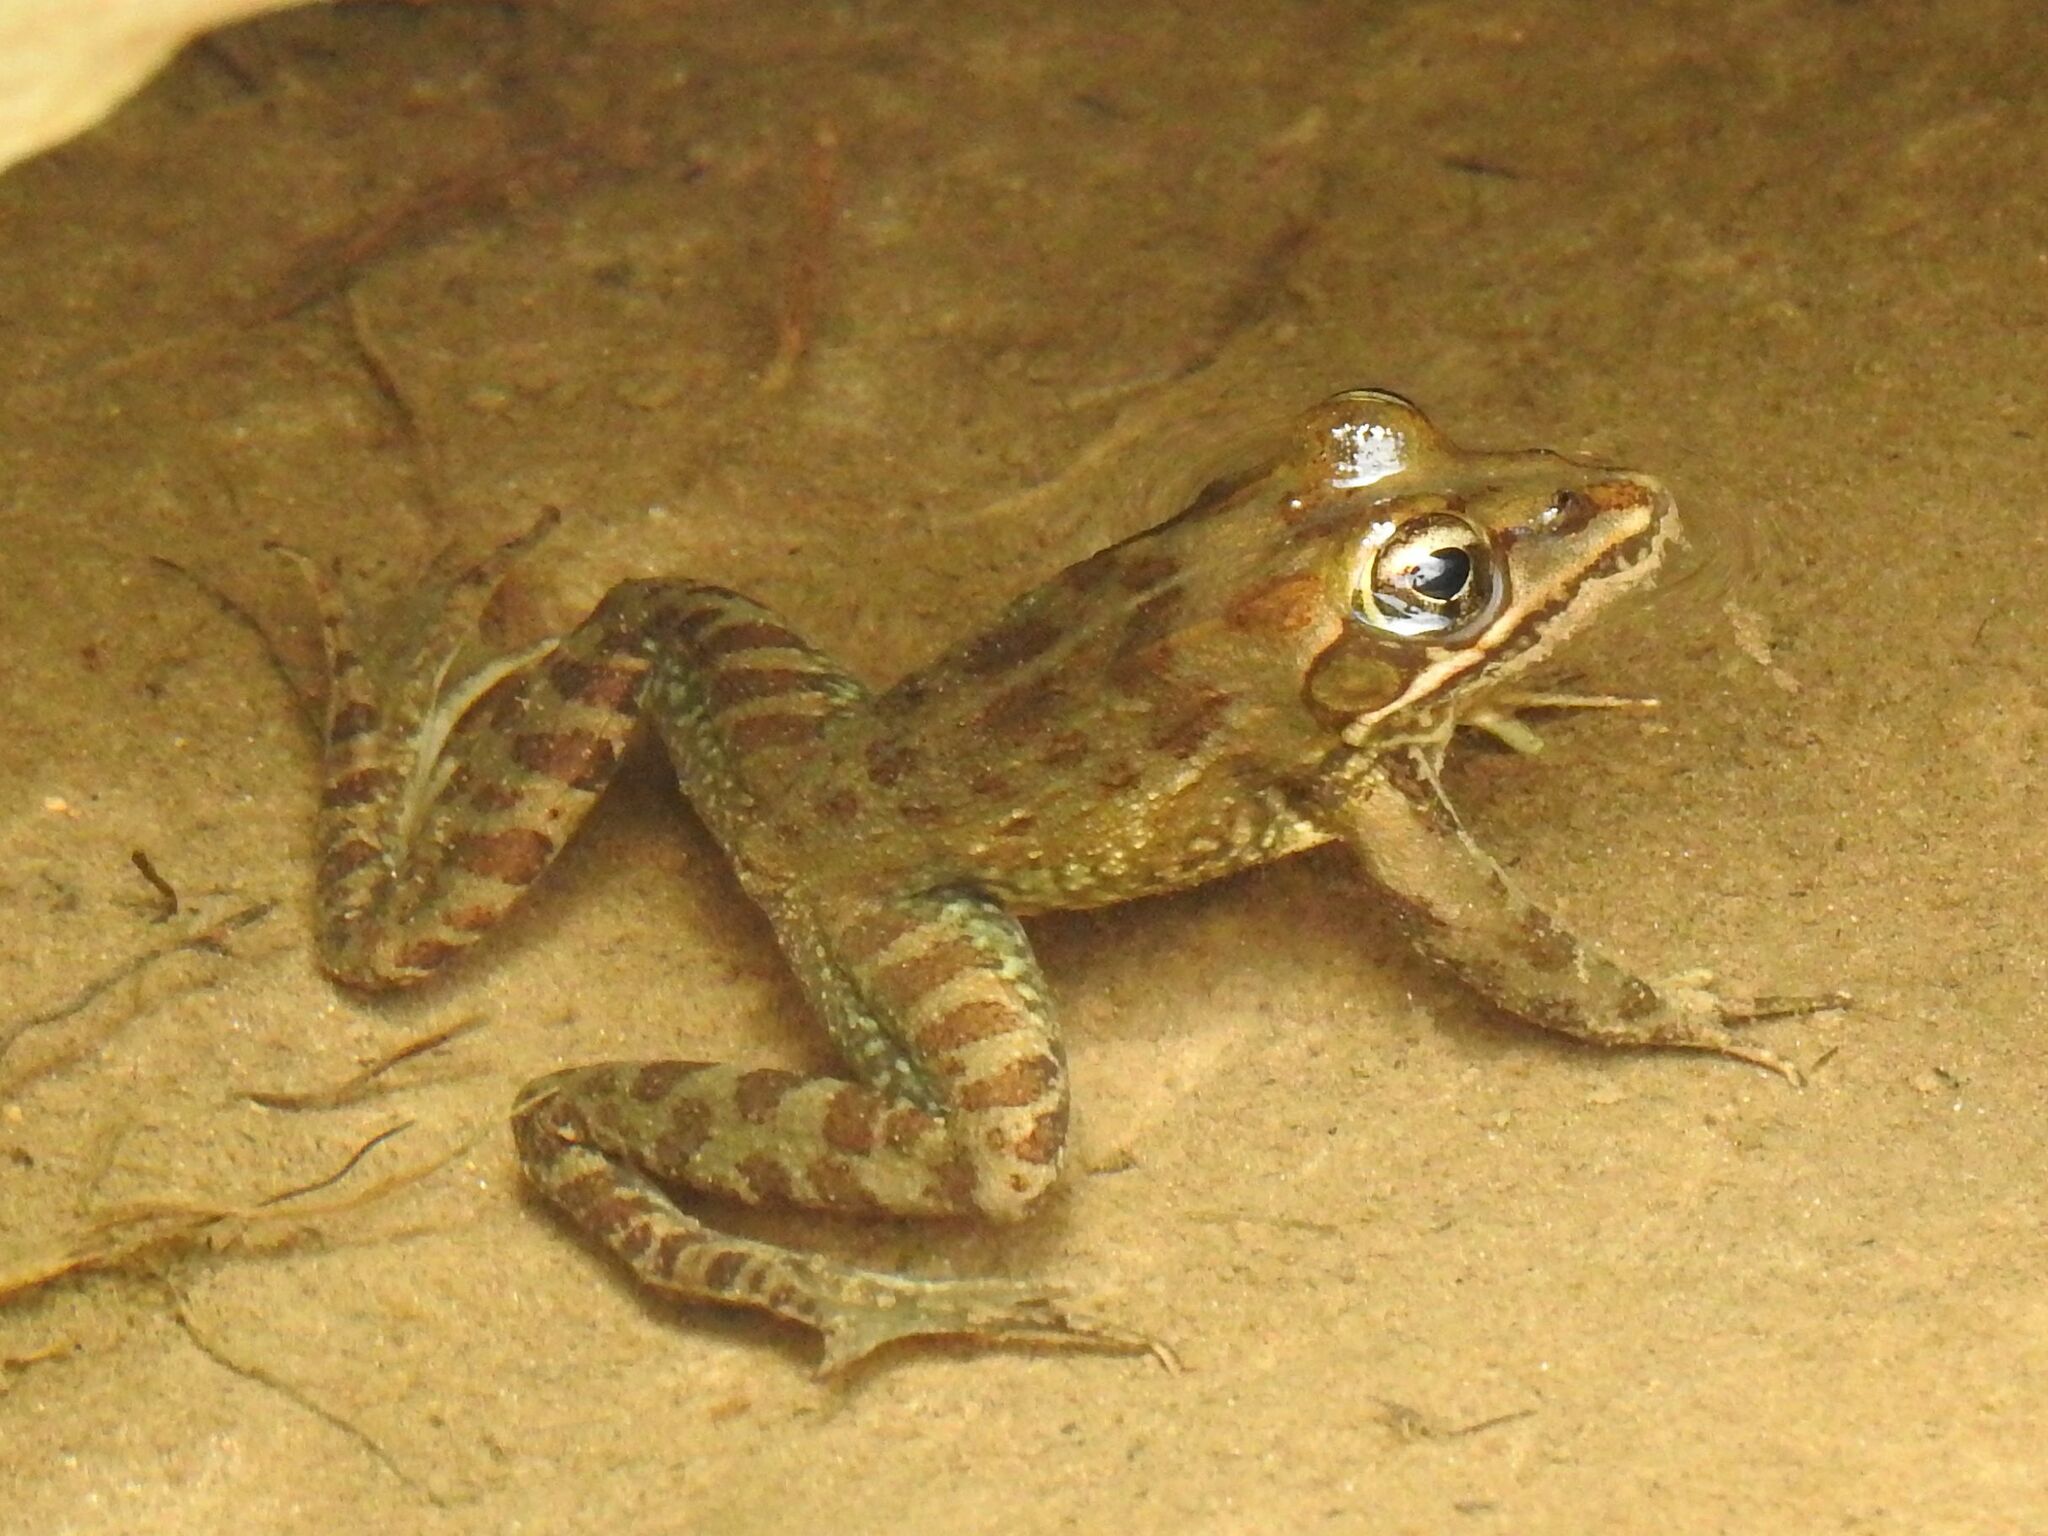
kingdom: Animalia
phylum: Chordata
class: Amphibia
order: Anura
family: Pyxicephalidae
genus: Amietia
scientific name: Amietia delalandii
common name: Delalande's river frog
